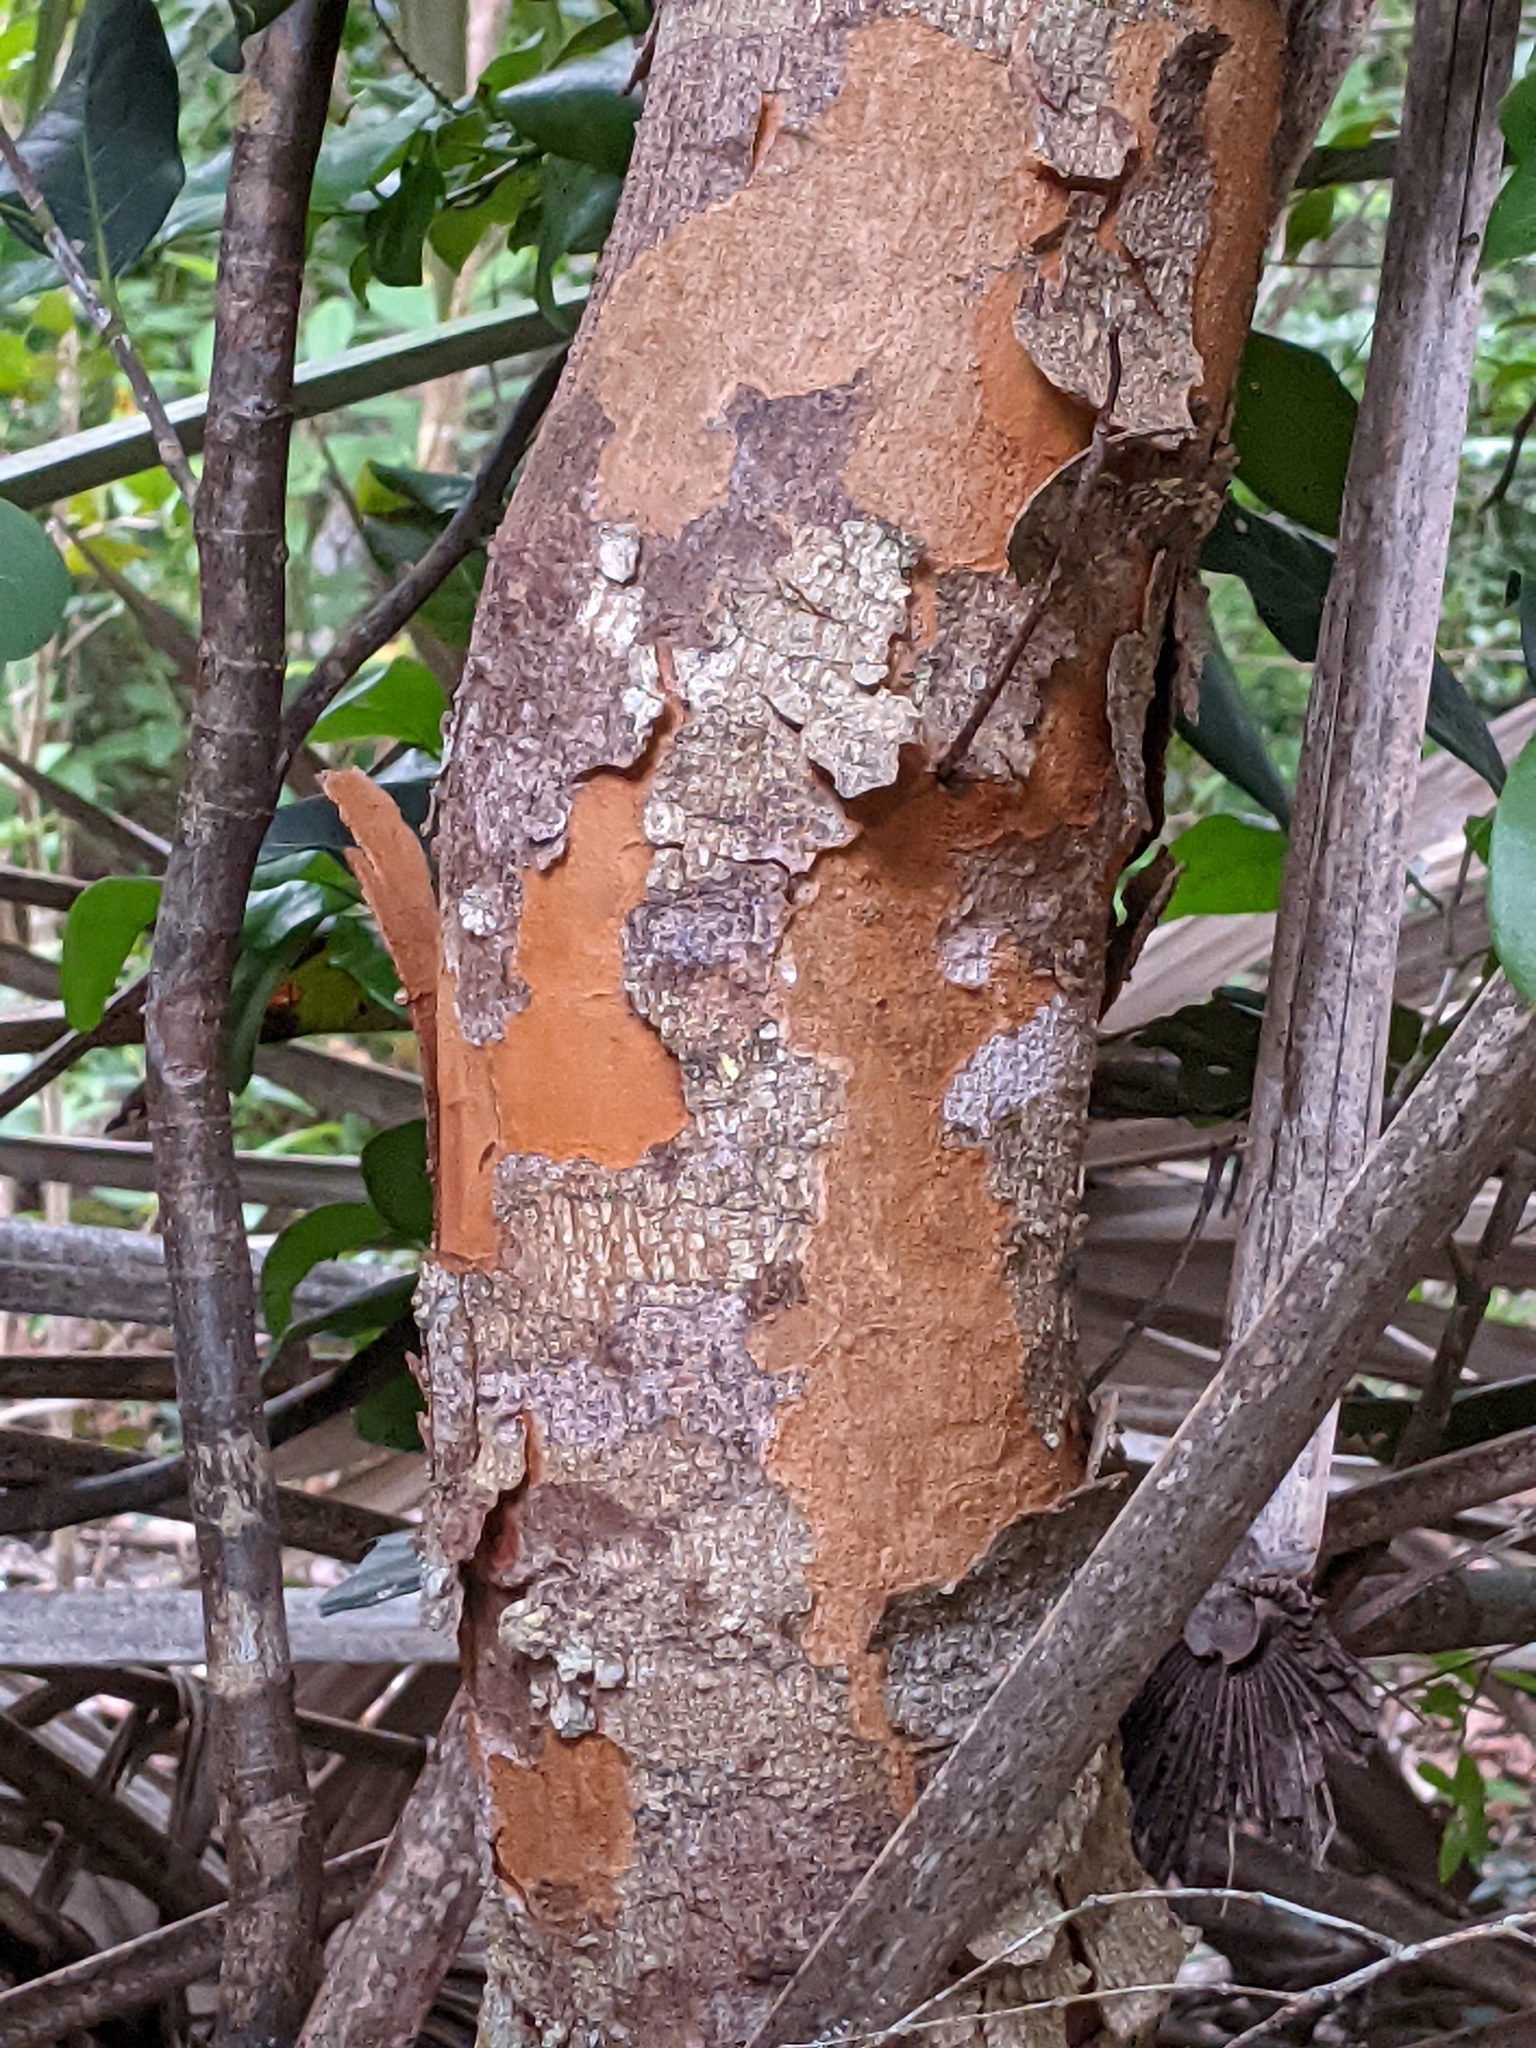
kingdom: Plantae
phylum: Tracheophyta
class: Magnoliopsida
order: Sapindales
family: Anacardiaceae
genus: Metopium
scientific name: Metopium toxiferum
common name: Florida poisontree
